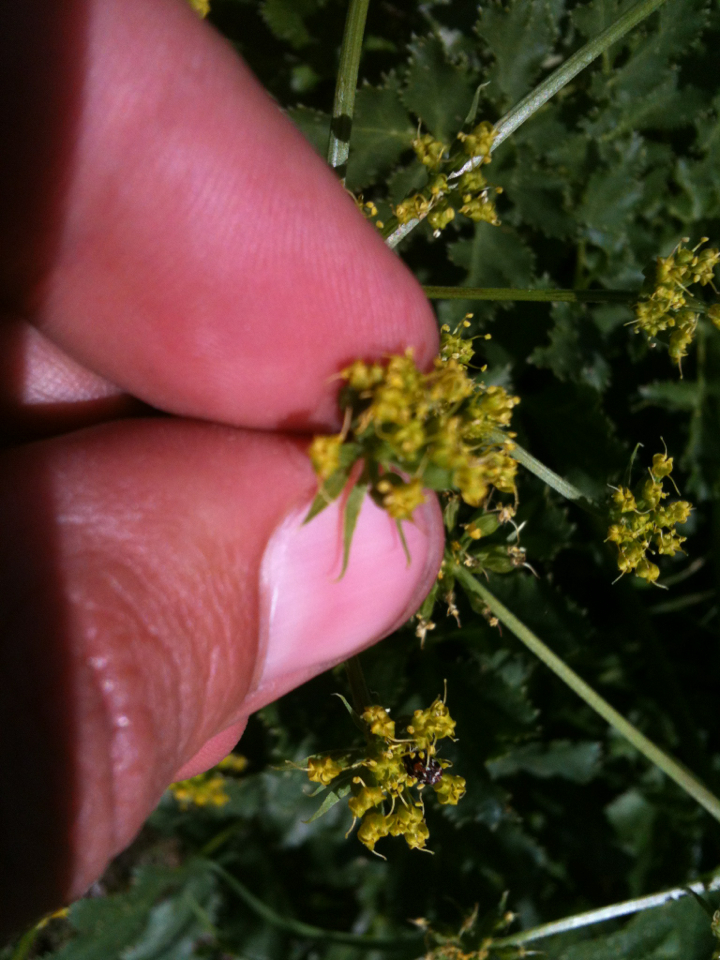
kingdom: Plantae
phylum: Tracheophyta
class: Magnoliopsida
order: Apiales
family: Apiaceae
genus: Tauschia
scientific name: Tauschia hartwegii
